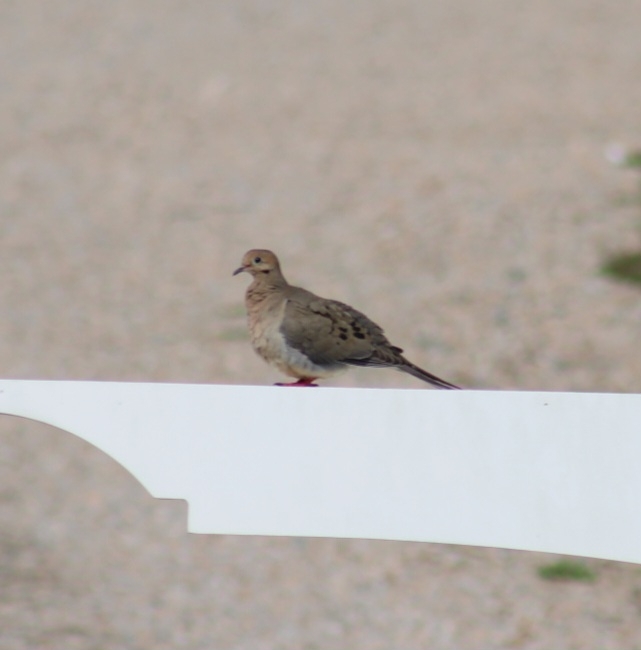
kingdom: Animalia
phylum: Chordata
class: Aves
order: Columbiformes
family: Columbidae
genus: Zenaida
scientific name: Zenaida macroura
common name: Mourning dove
